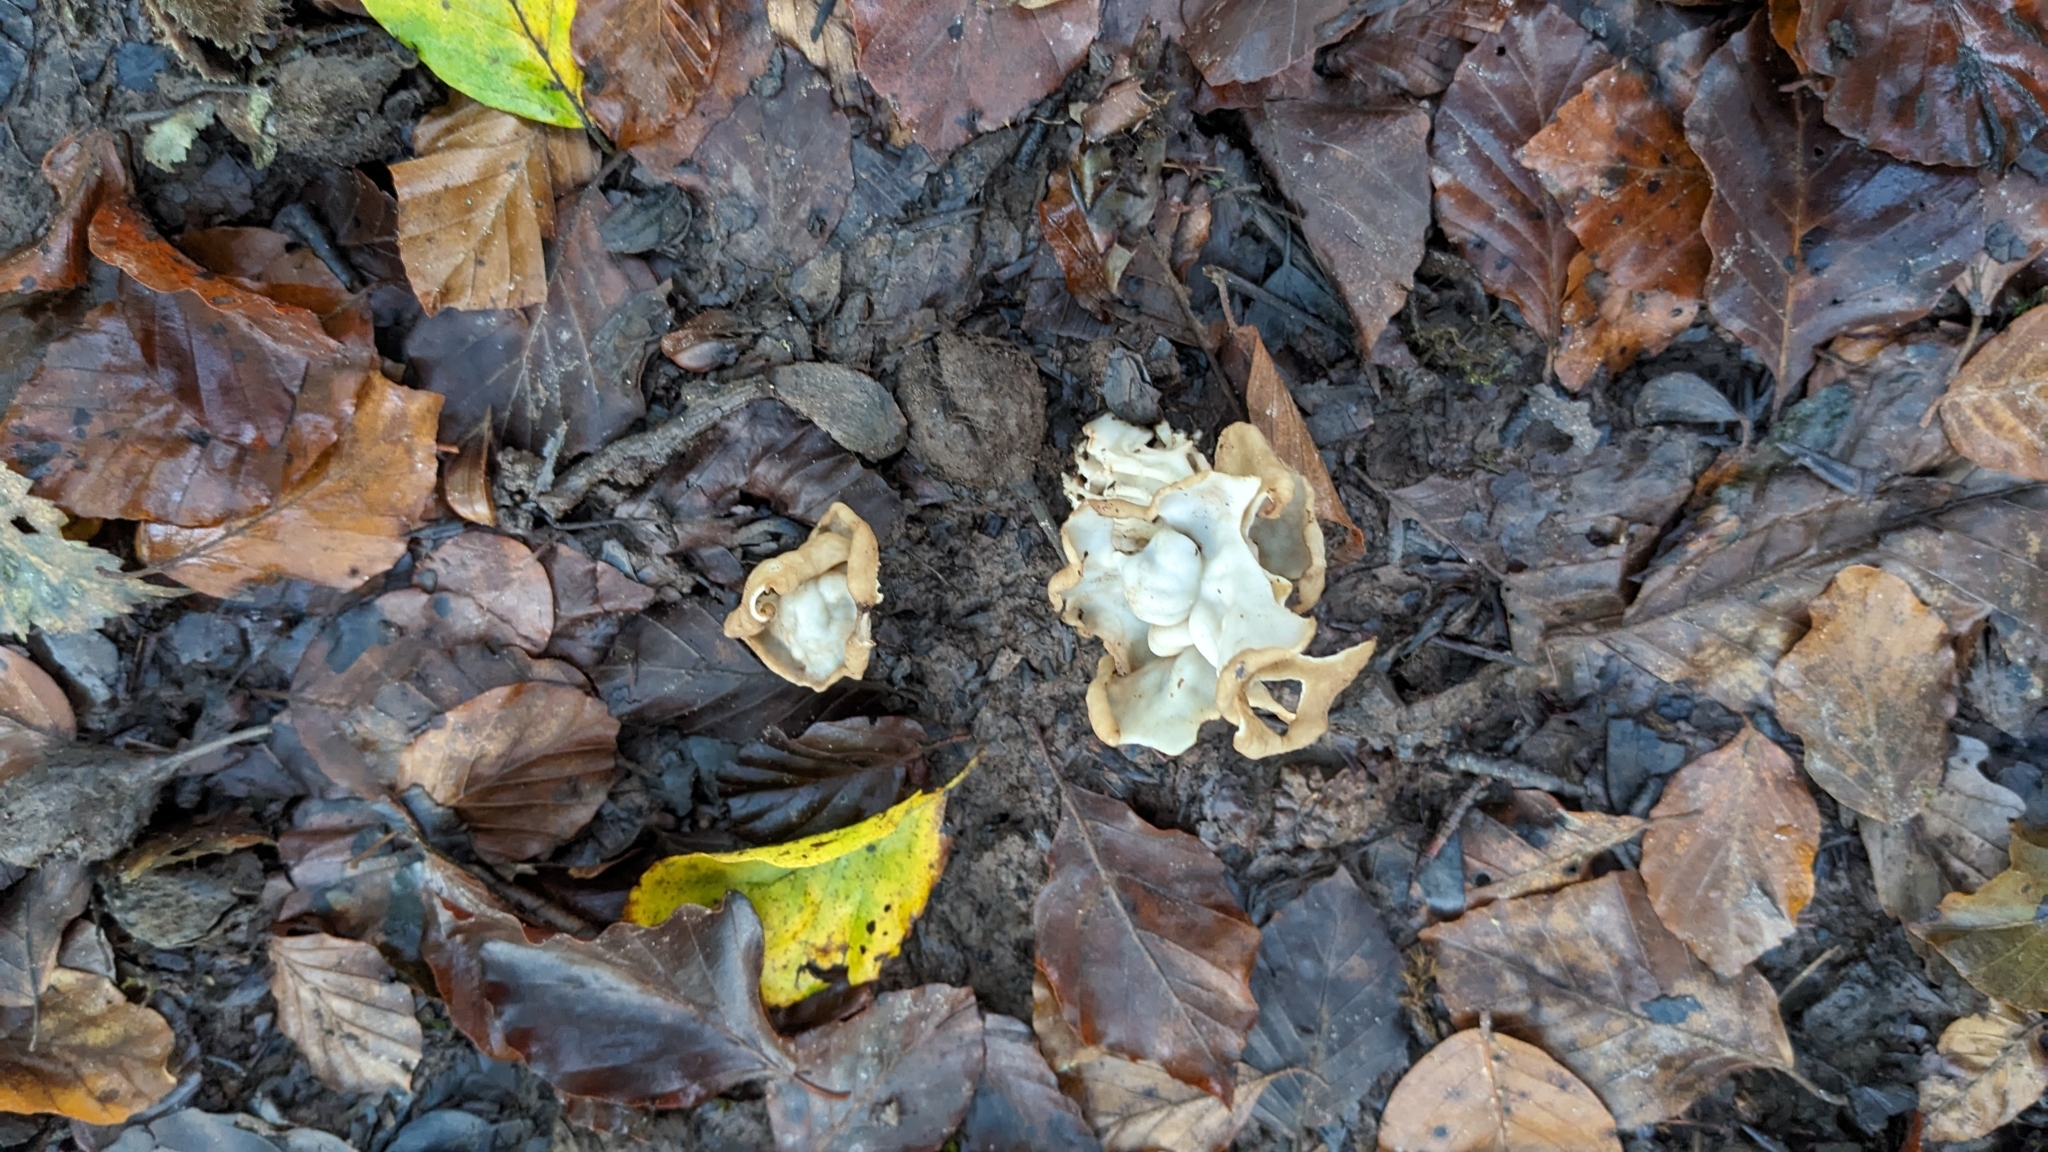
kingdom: Fungi
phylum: Ascomycota
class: Pezizomycetes
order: Pezizales
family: Helvellaceae
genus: Helvella
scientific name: Helvella crispa
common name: White saddle
